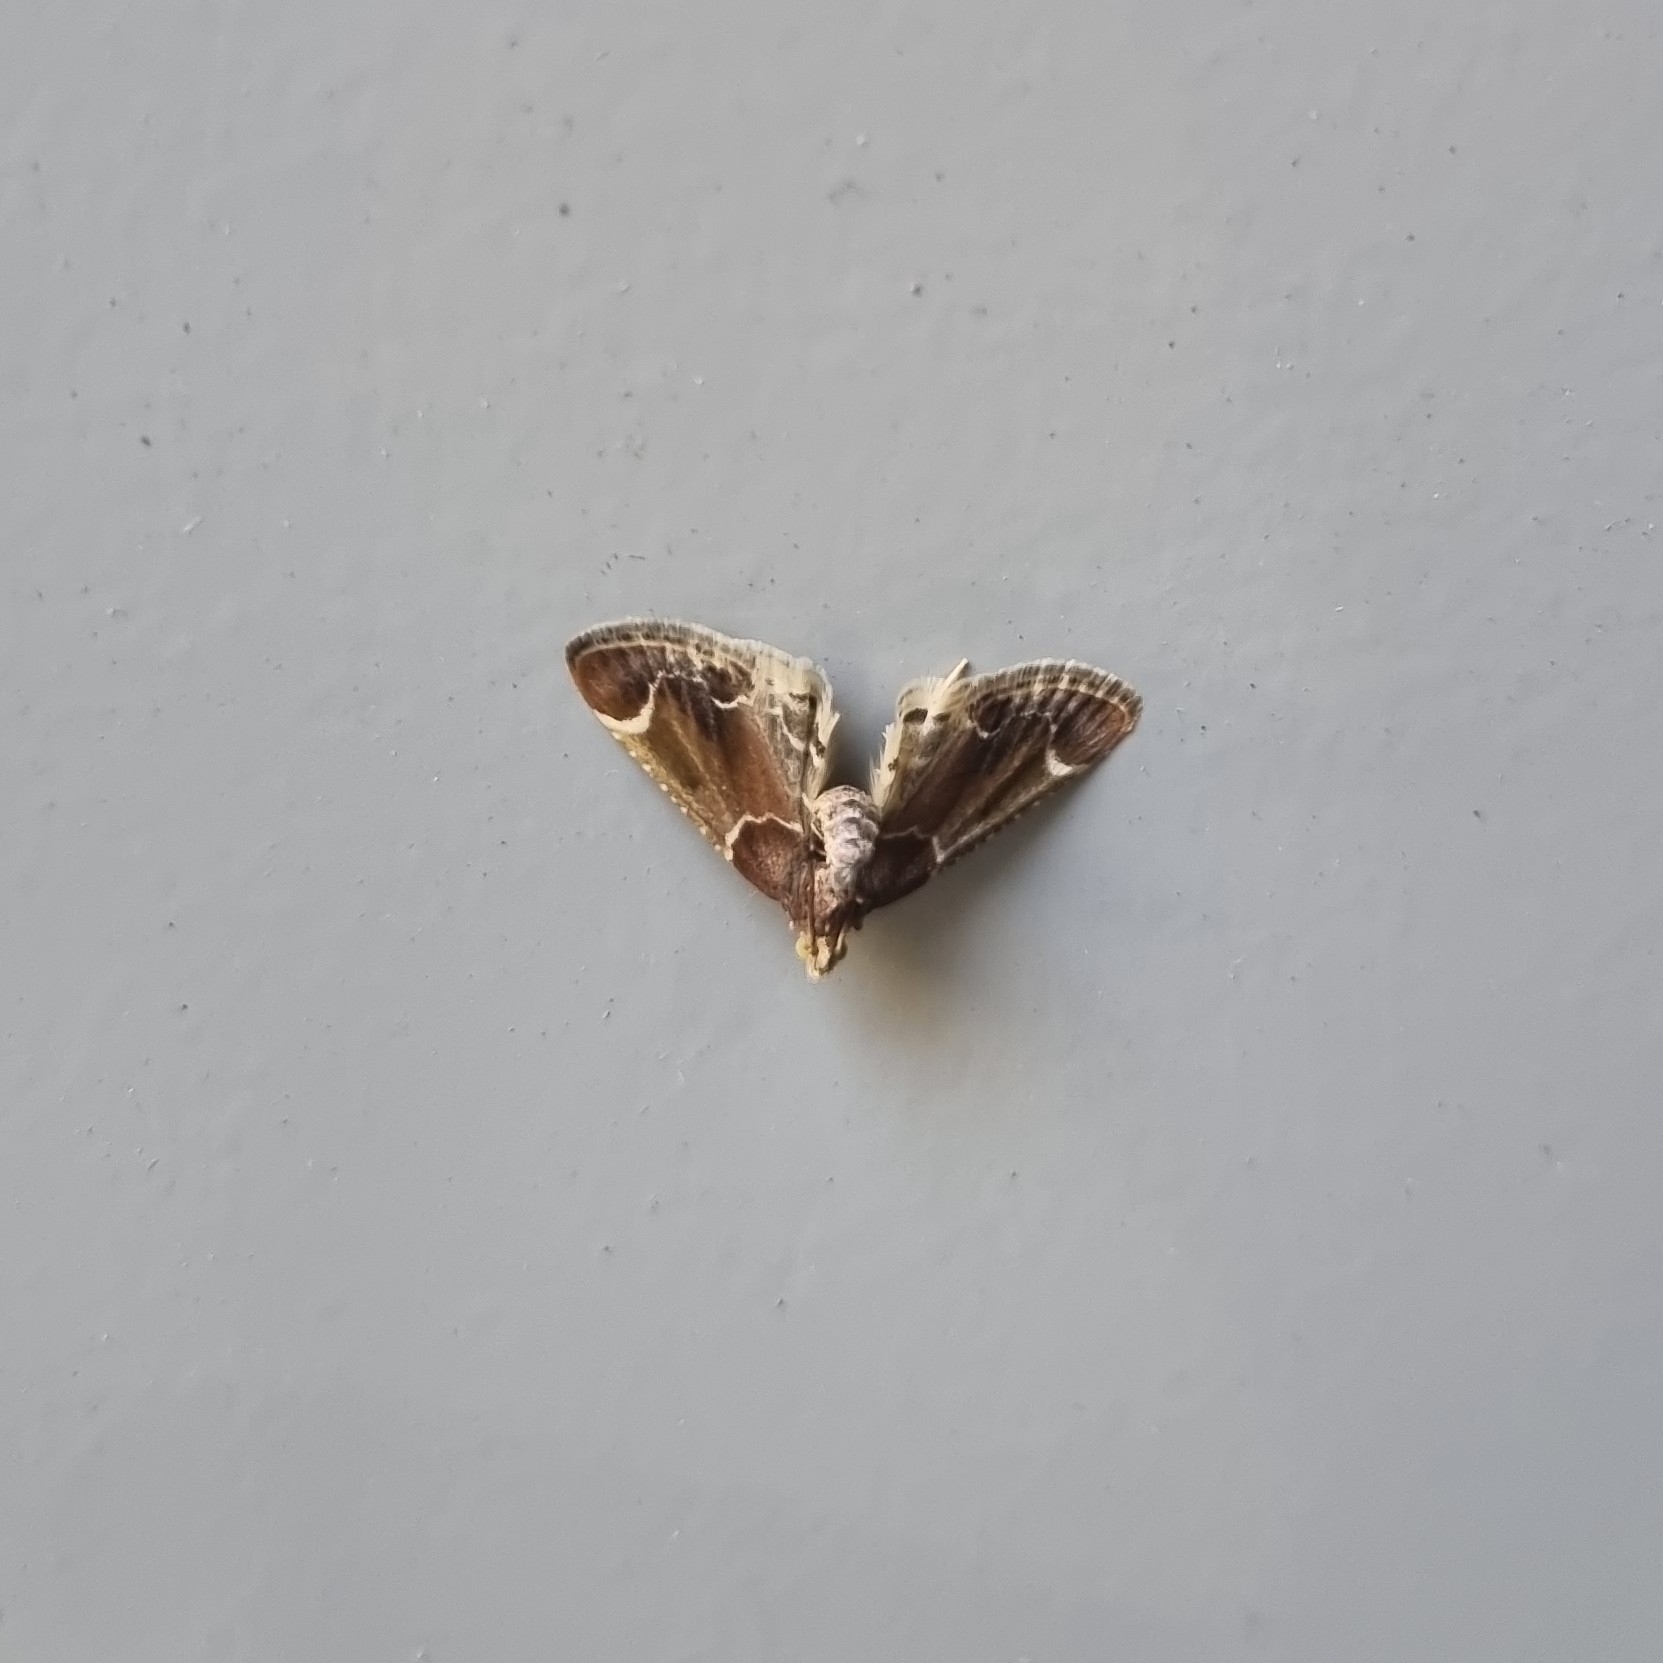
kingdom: Animalia
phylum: Arthropoda
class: Insecta
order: Lepidoptera
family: Pyralidae
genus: Pyralis
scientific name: Pyralis farinalis
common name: Meal moth
